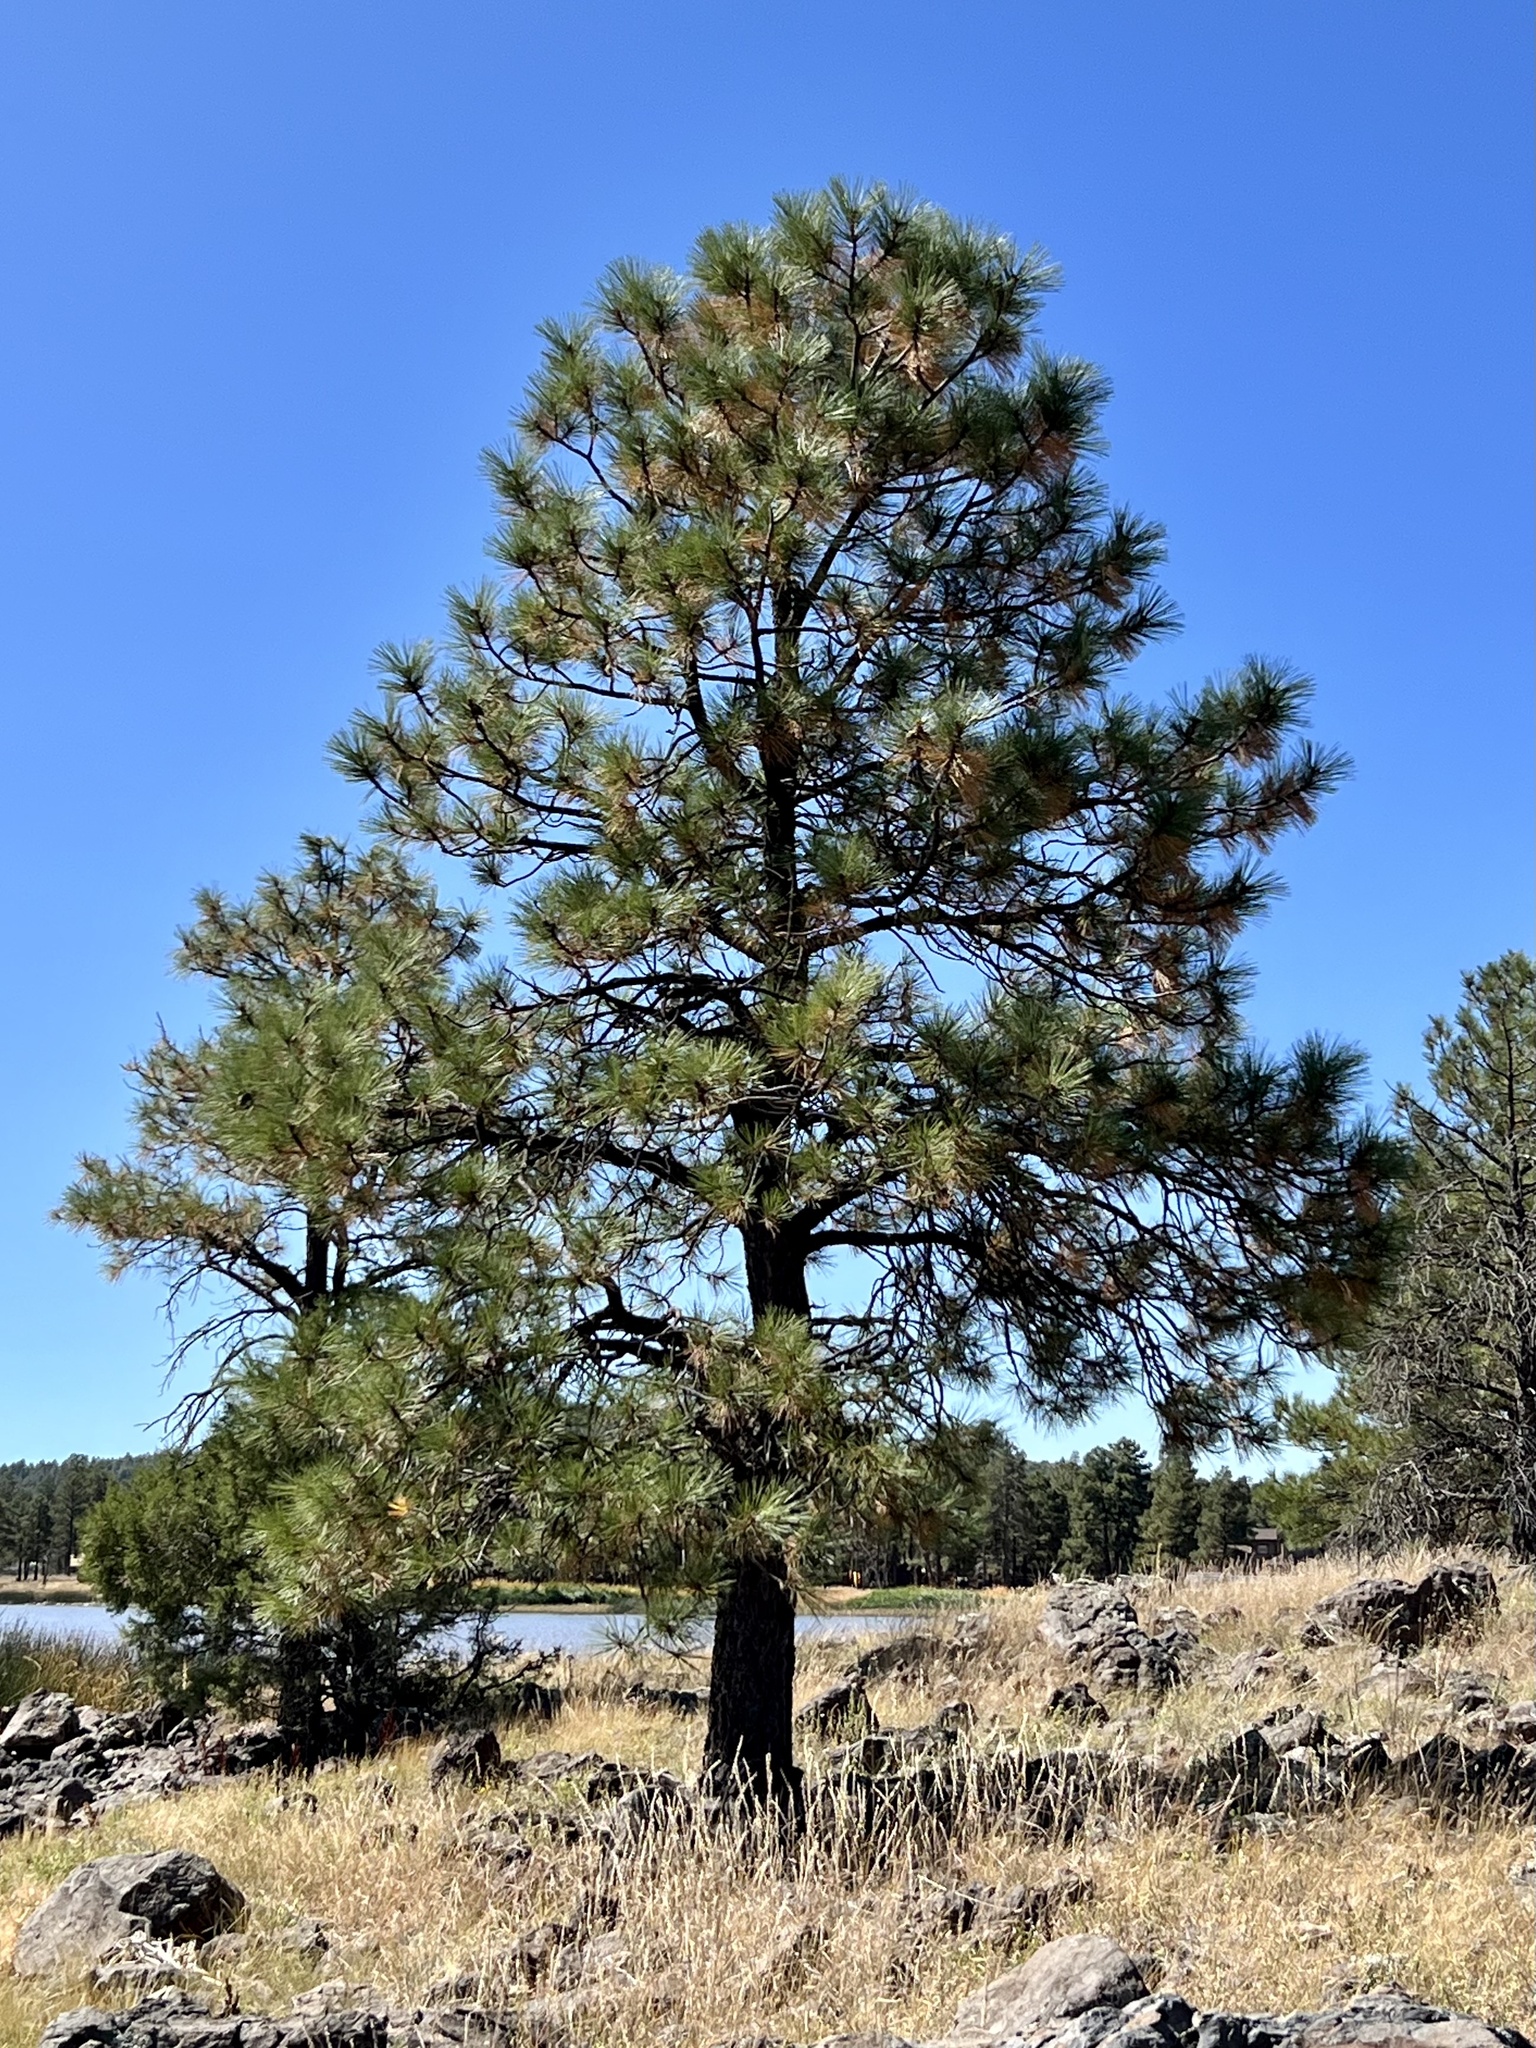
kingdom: Plantae
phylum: Tracheophyta
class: Pinopsida
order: Pinales
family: Pinaceae
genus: Pinus
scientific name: Pinus ponderosa
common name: Western yellow-pine
